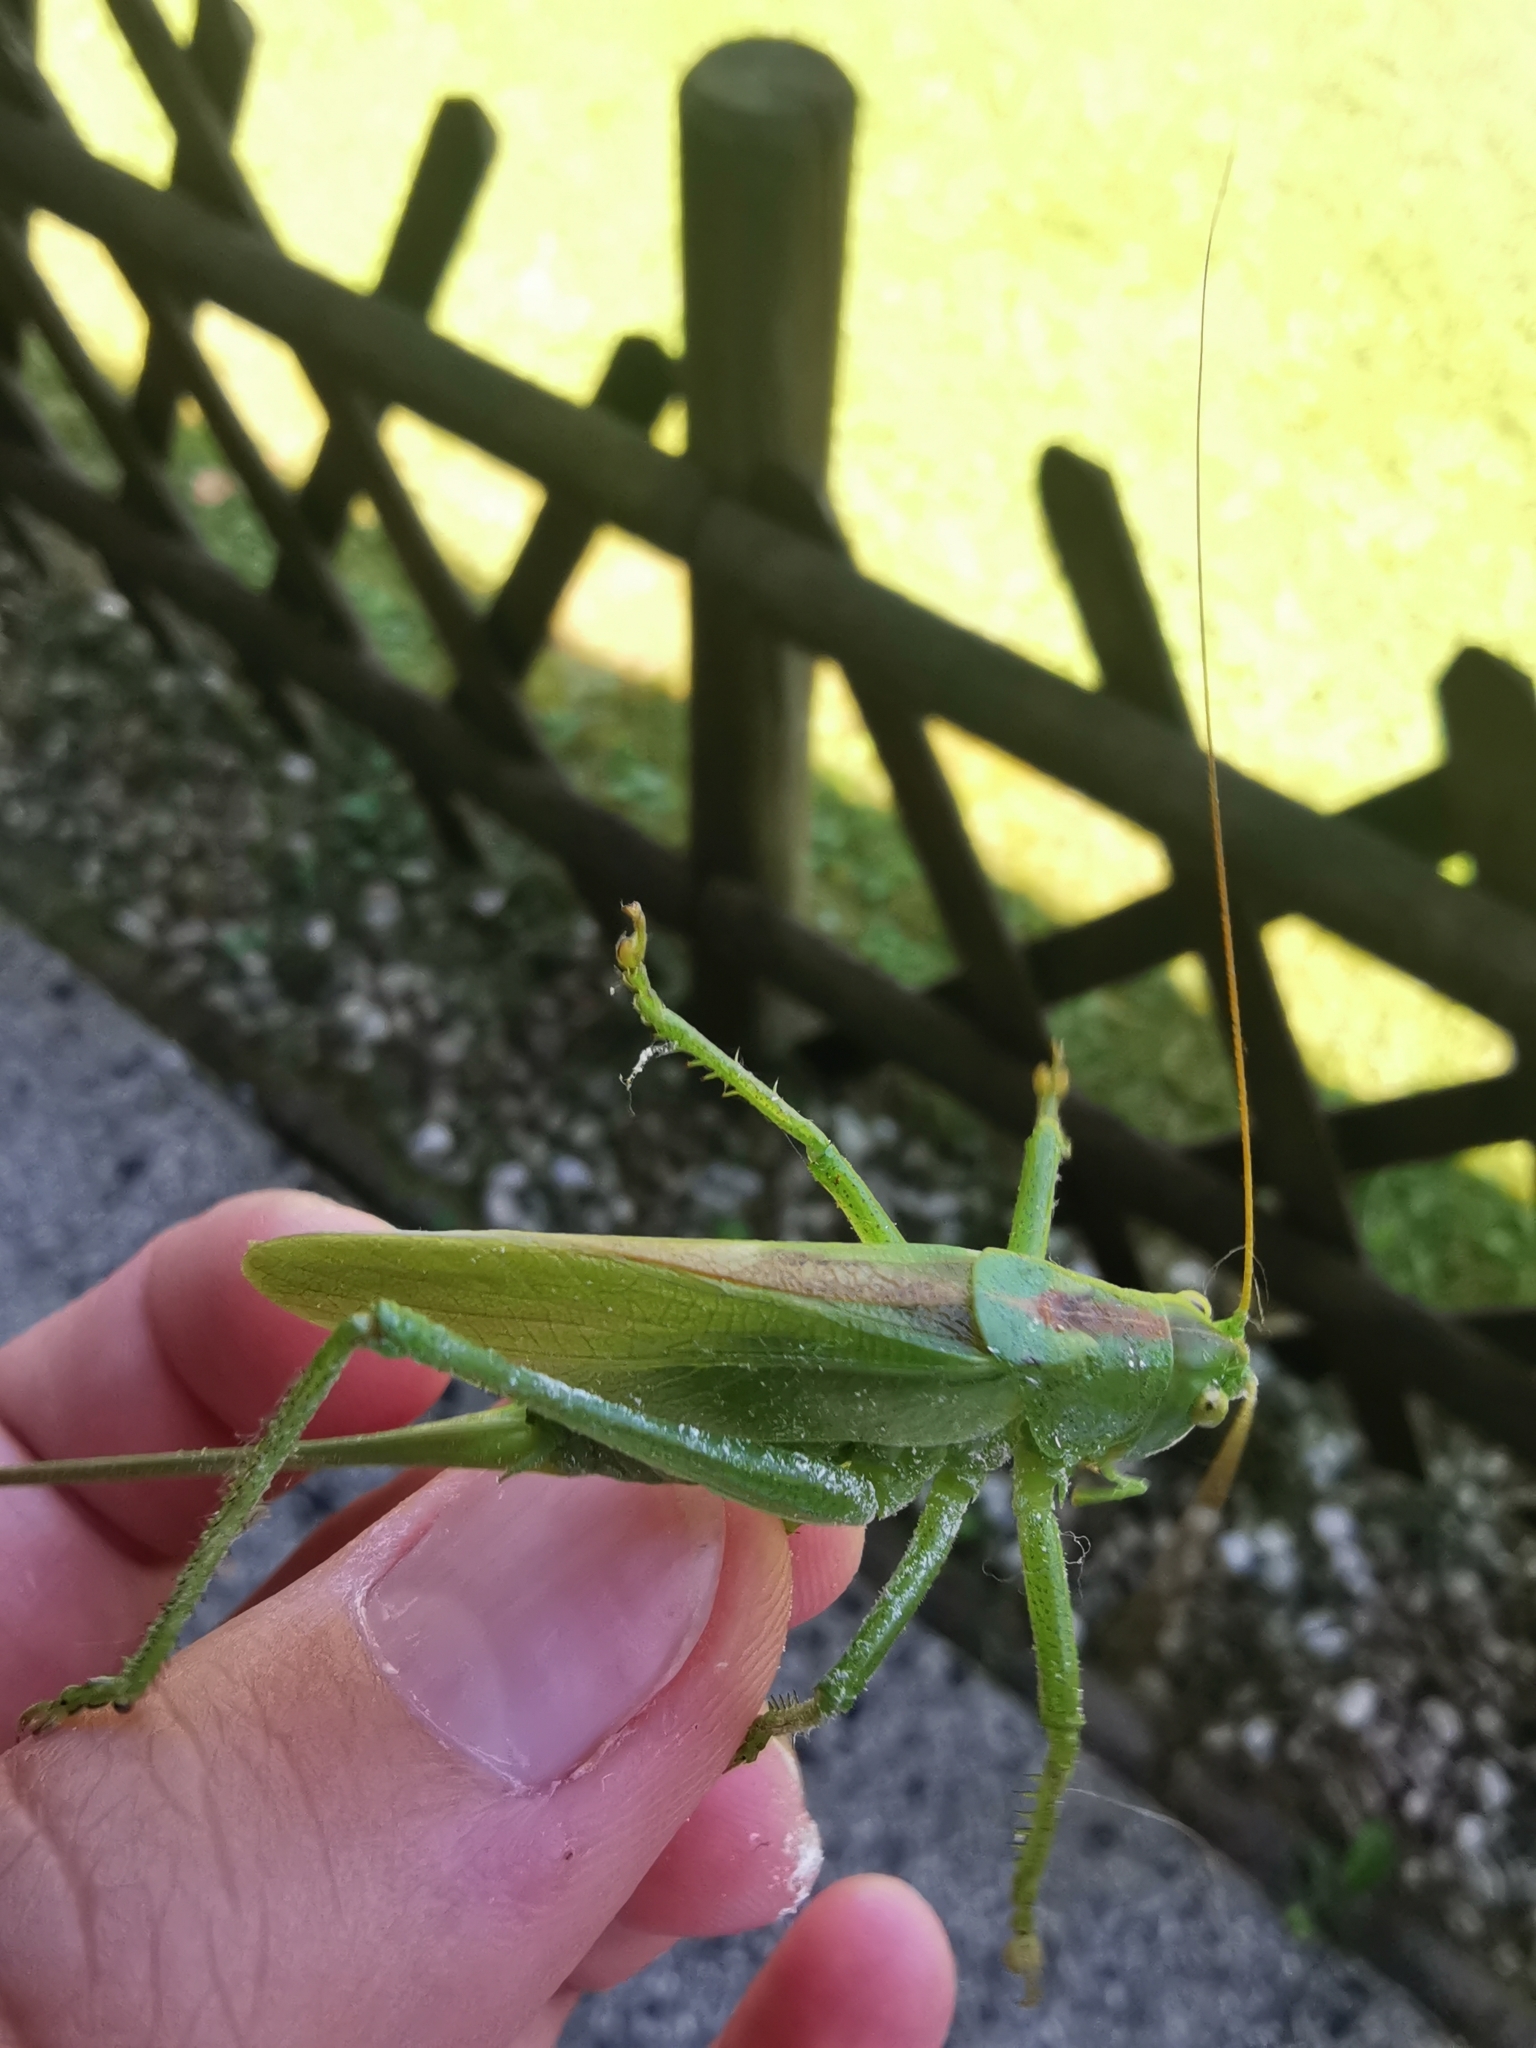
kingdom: Animalia
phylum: Arthropoda
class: Insecta
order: Orthoptera
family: Tettigoniidae
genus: Tettigonia
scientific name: Tettigonia cantans
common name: Upland green bush-cricket
